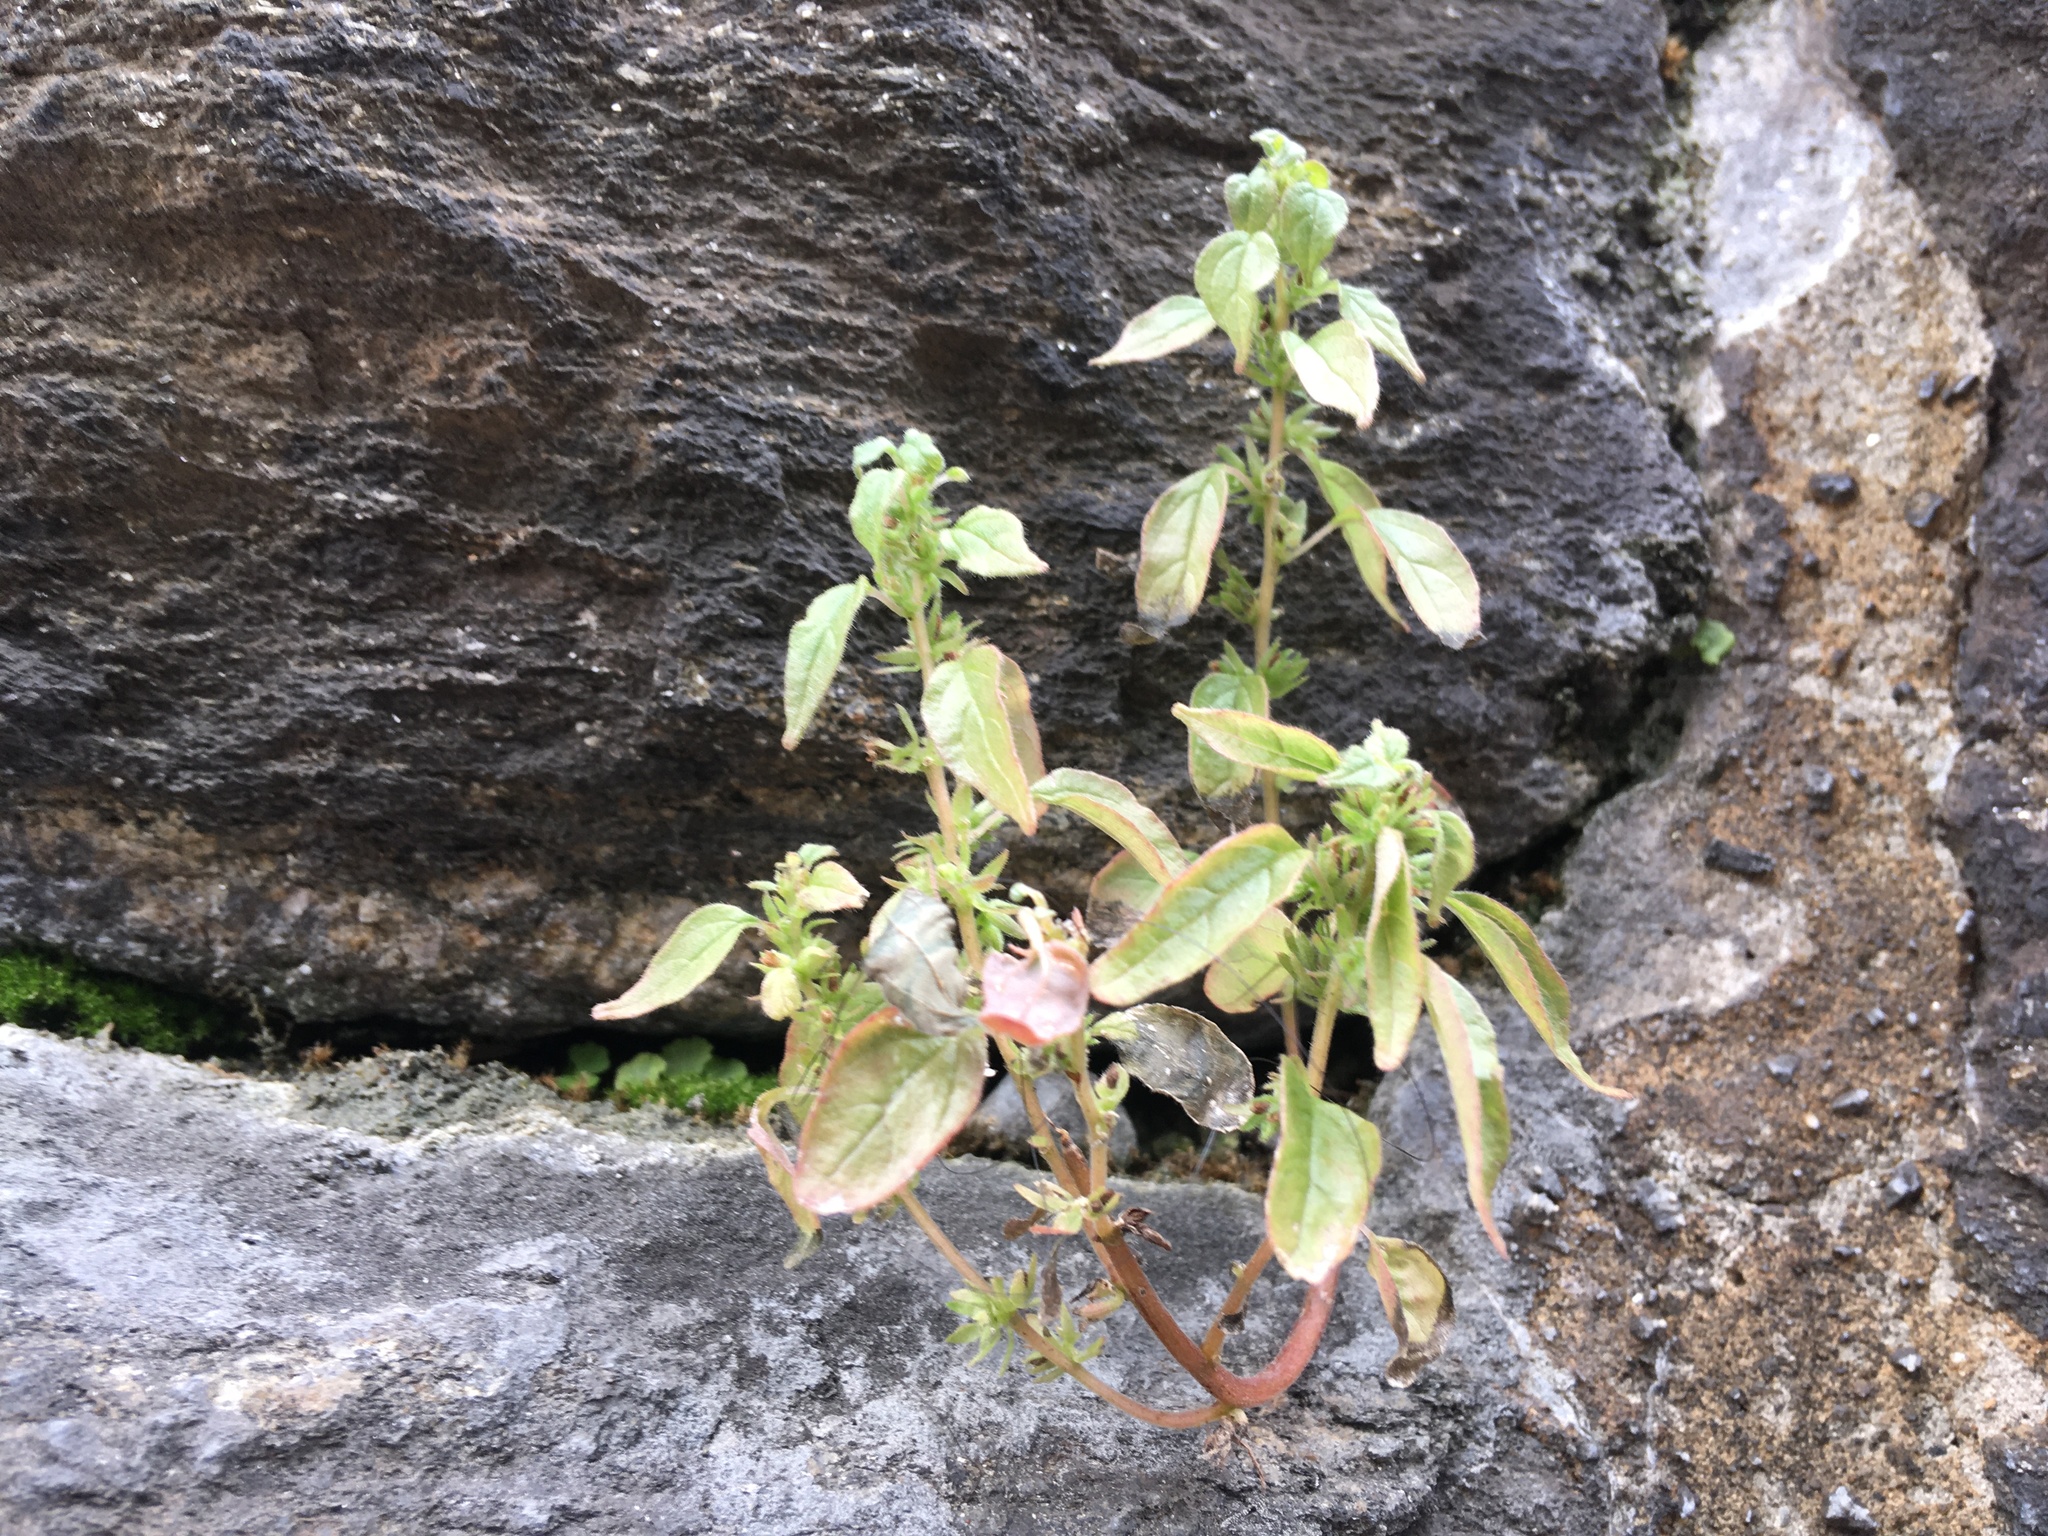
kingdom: Plantae
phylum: Tracheophyta
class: Magnoliopsida
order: Rosales
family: Urticaceae
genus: Parietaria
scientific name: Parietaria pensylvanica
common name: Pennsylvania pellitory
